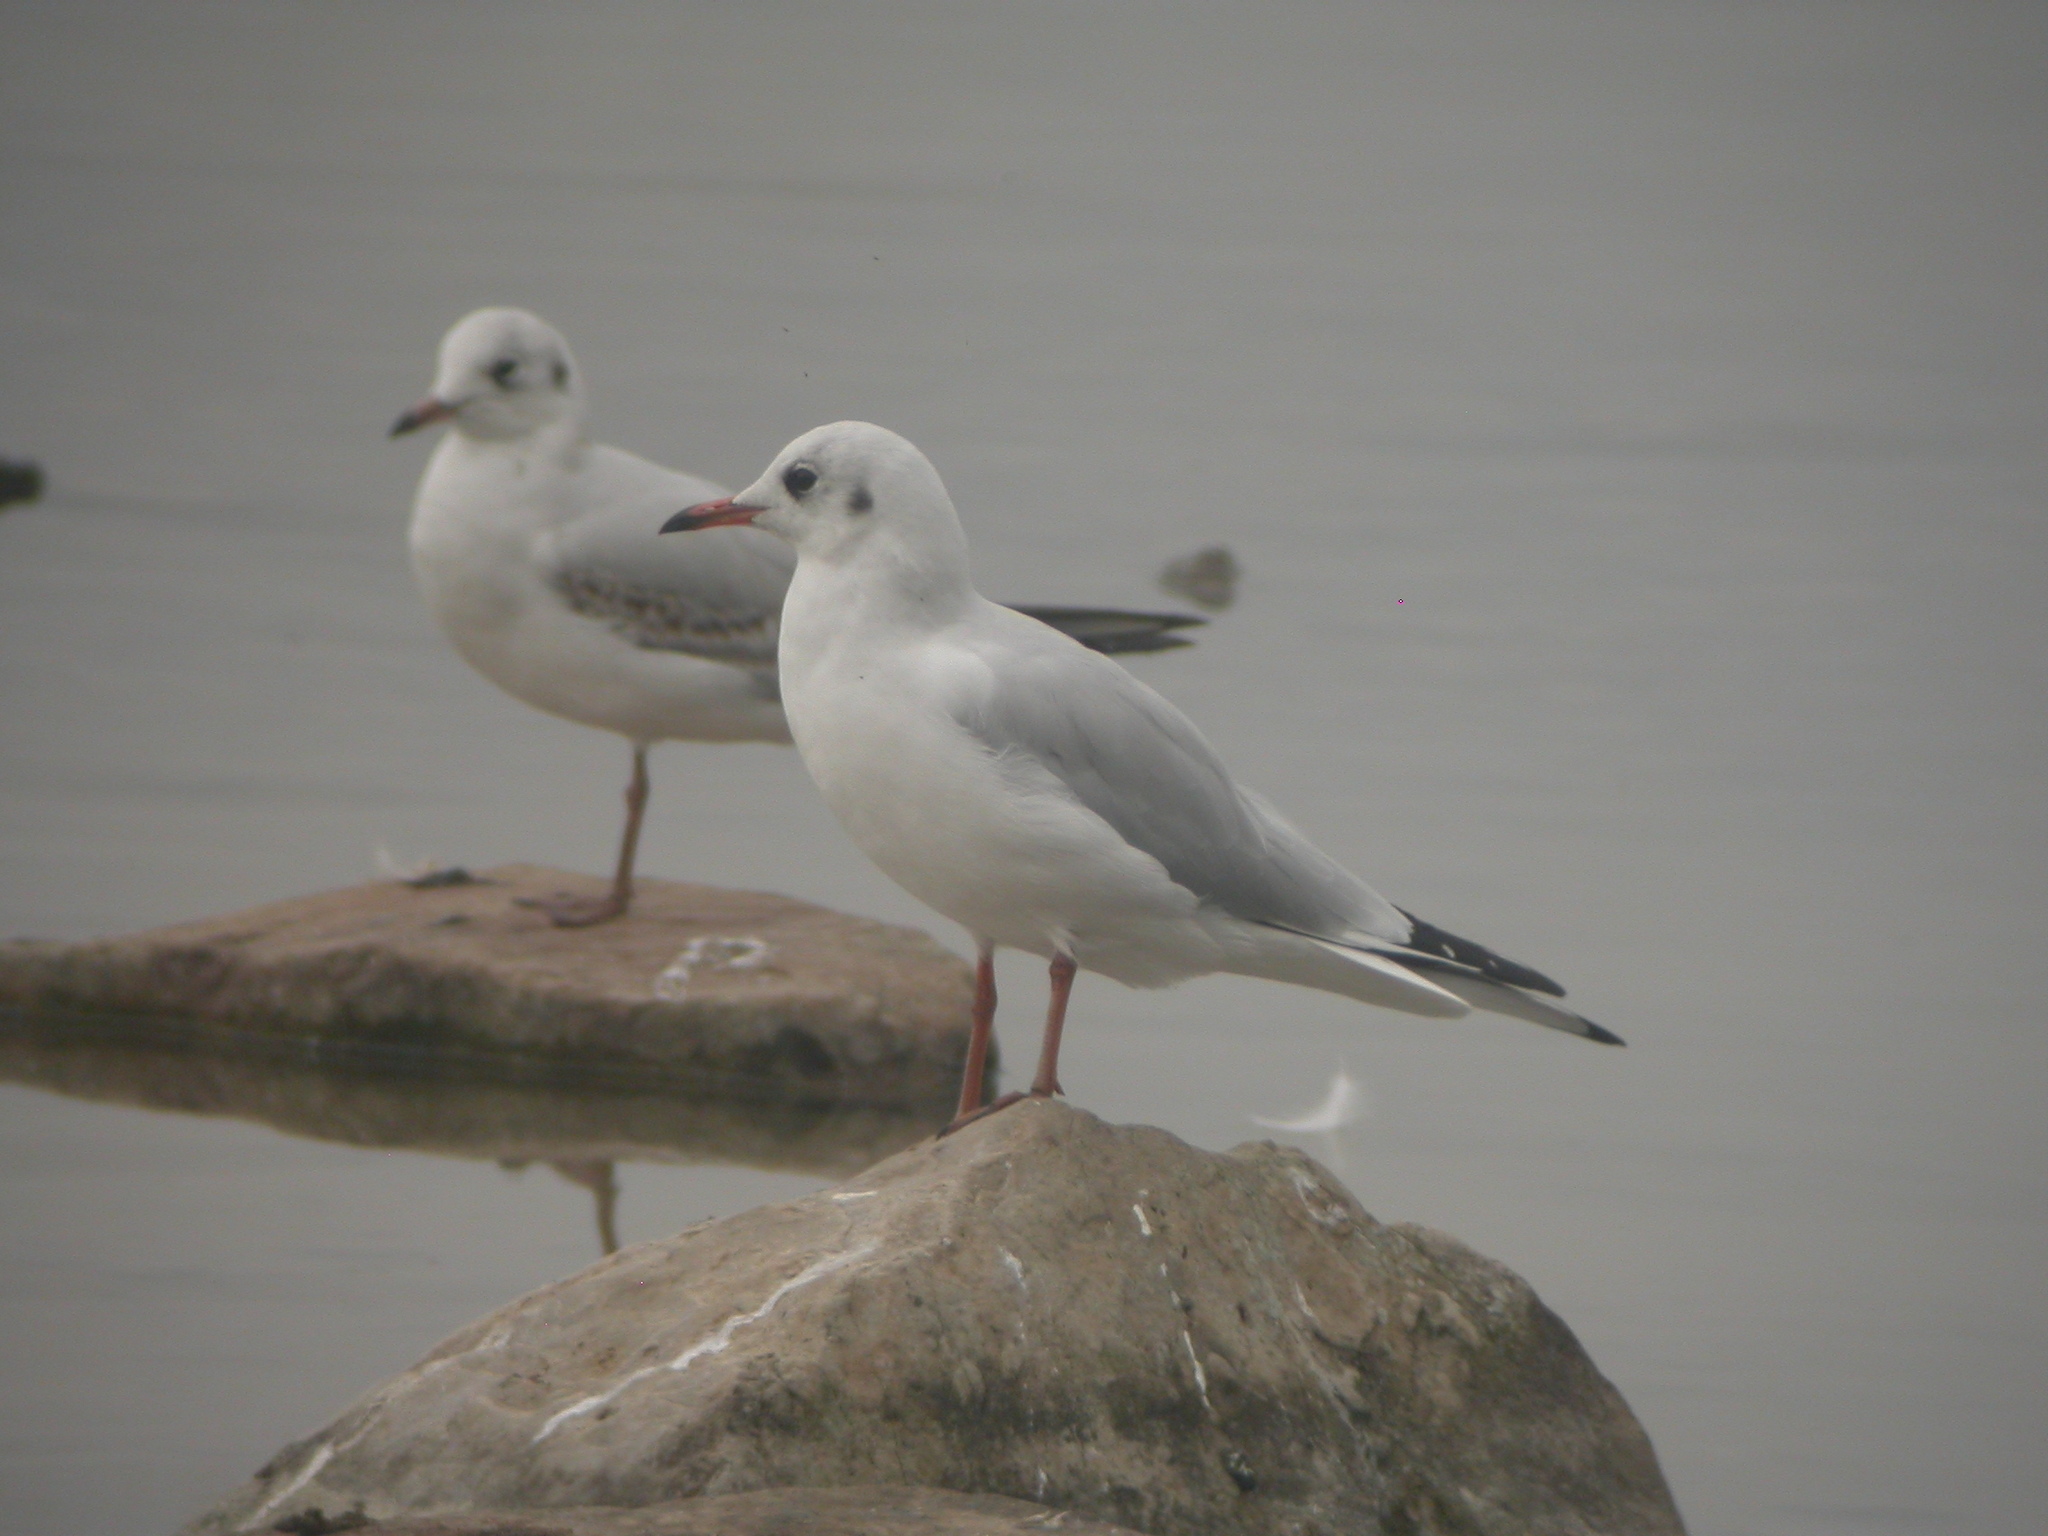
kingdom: Animalia
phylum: Chordata
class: Aves
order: Charadriiformes
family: Laridae
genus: Chroicocephalus
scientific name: Chroicocephalus ridibundus
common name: Black-headed gull
